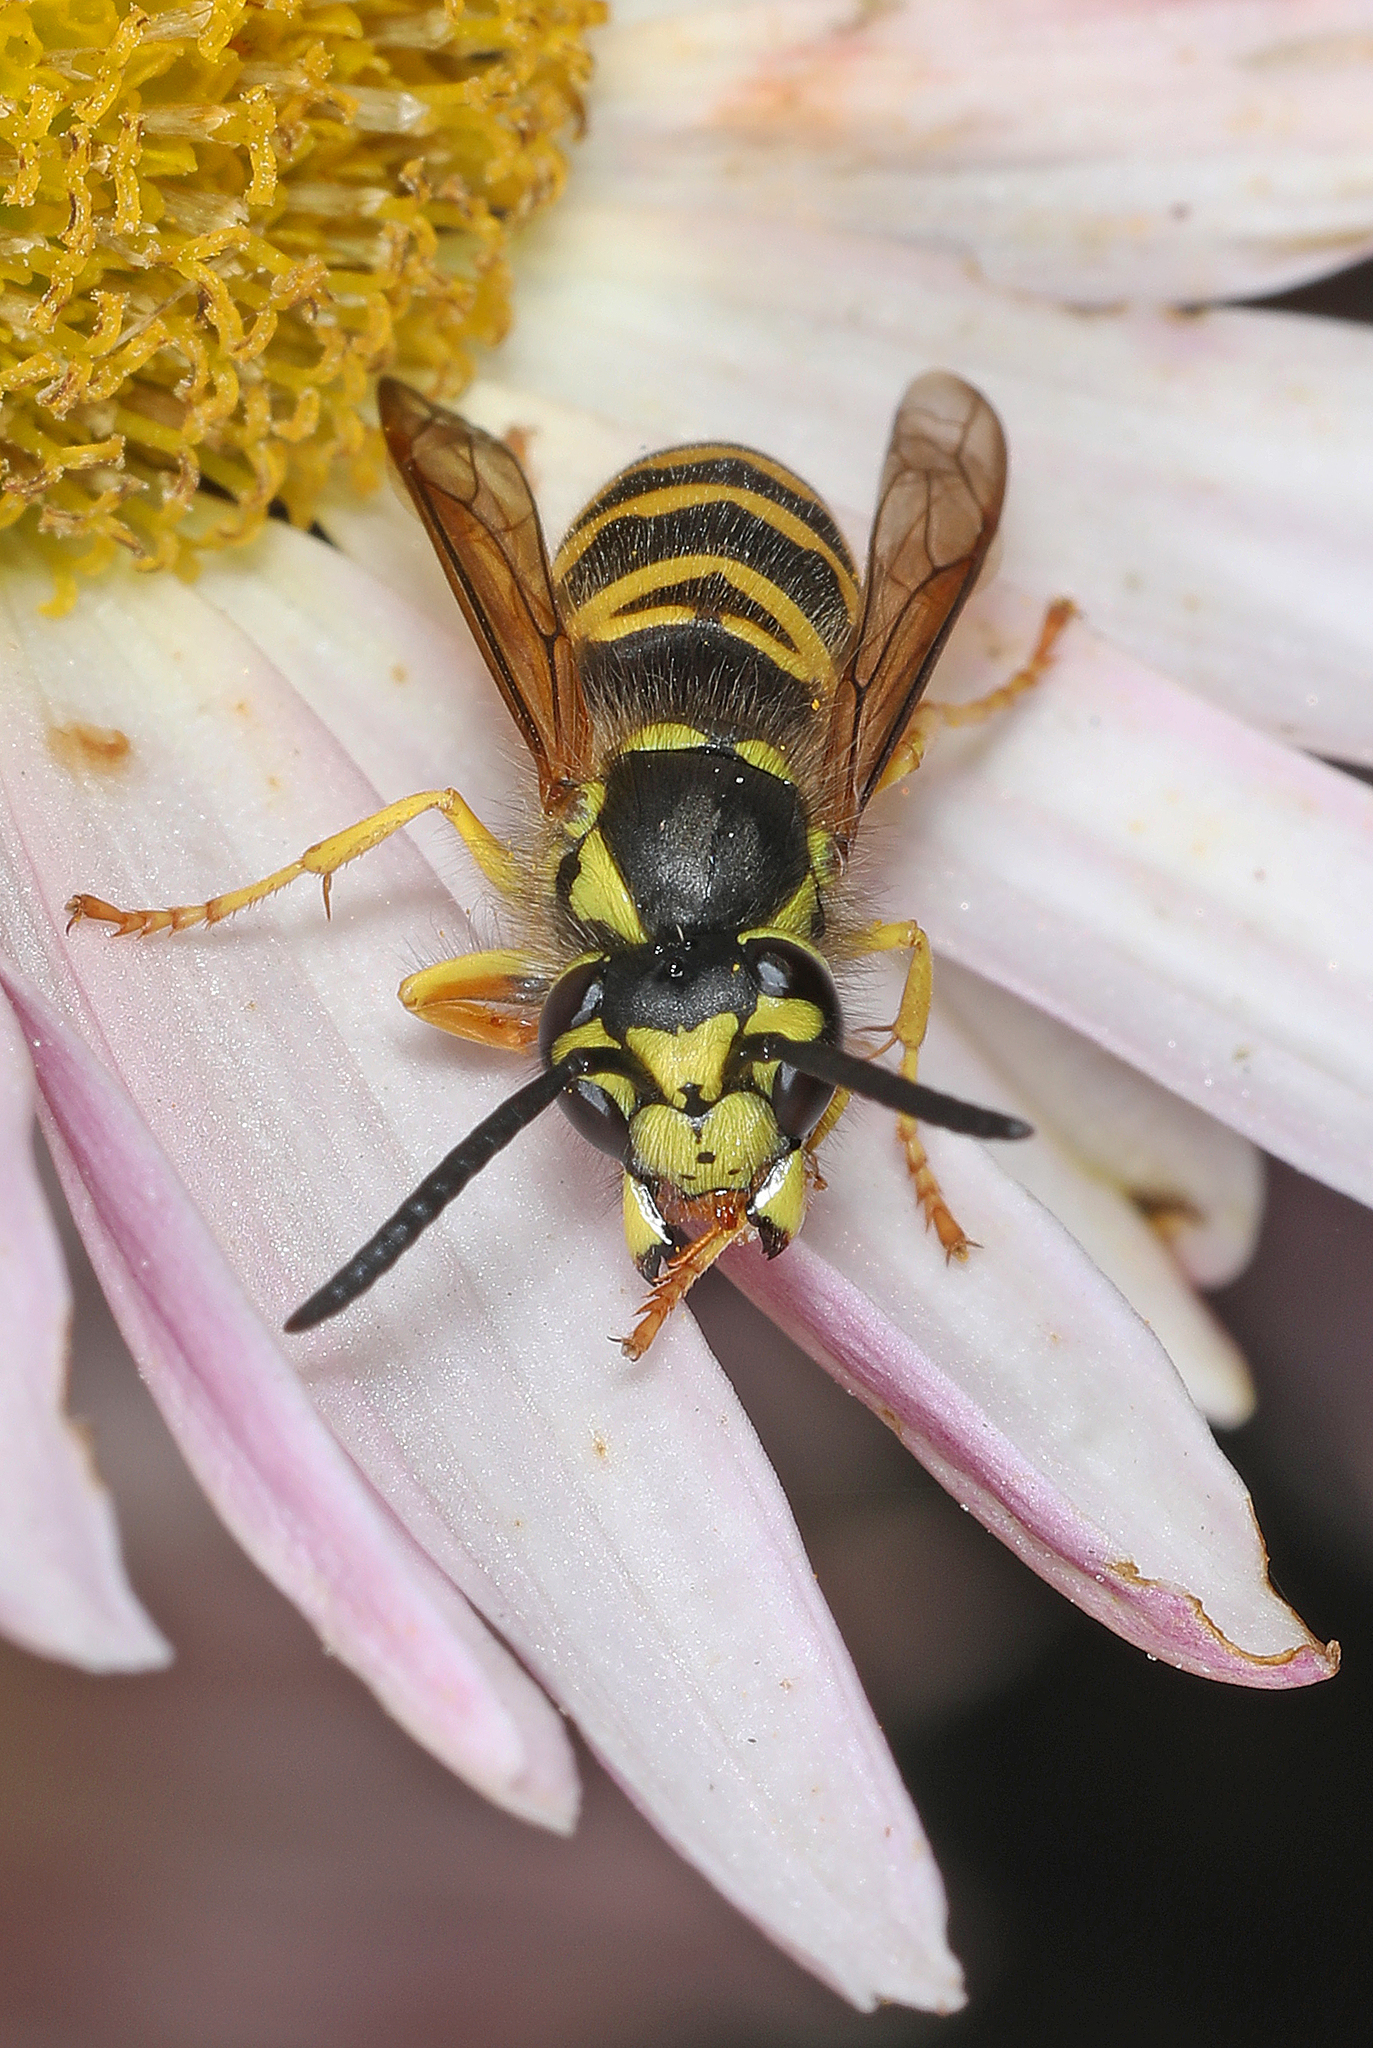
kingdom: Animalia
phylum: Arthropoda
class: Insecta
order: Hymenoptera
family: Vespidae
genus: Vespula
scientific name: Vespula maculifrons
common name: Eastern yellowjacket
